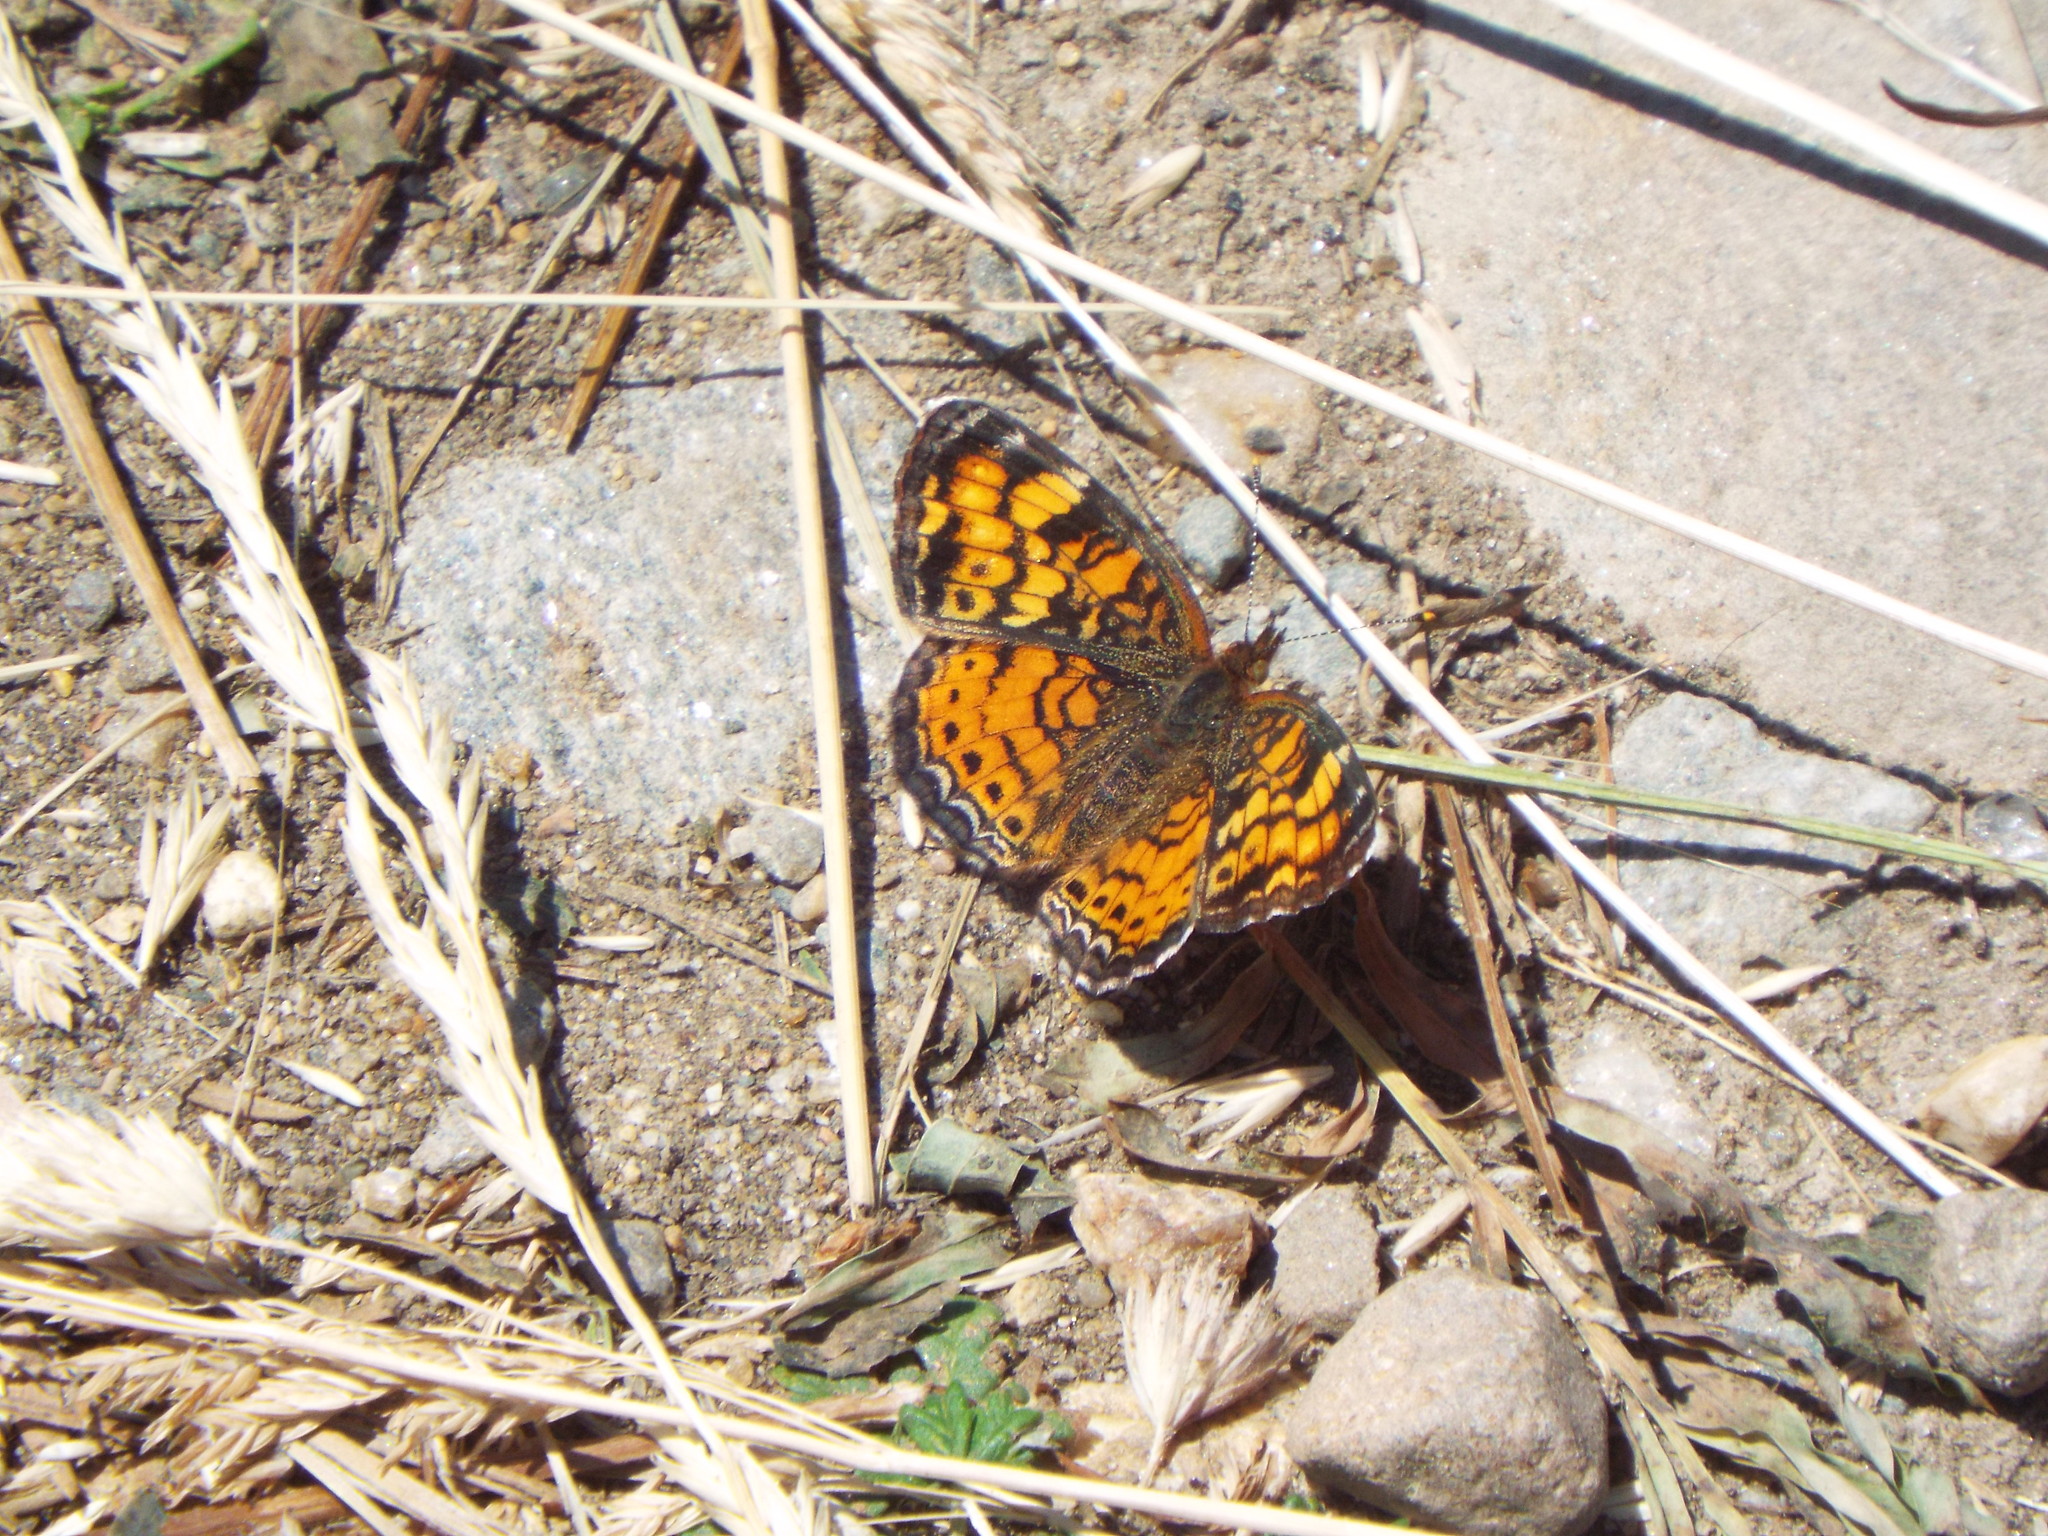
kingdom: Animalia
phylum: Arthropoda
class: Insecta
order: Lepidoptera
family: Nymphalidae
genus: Phyciodes
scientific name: Phyciodes tharos
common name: Pearl crescent
